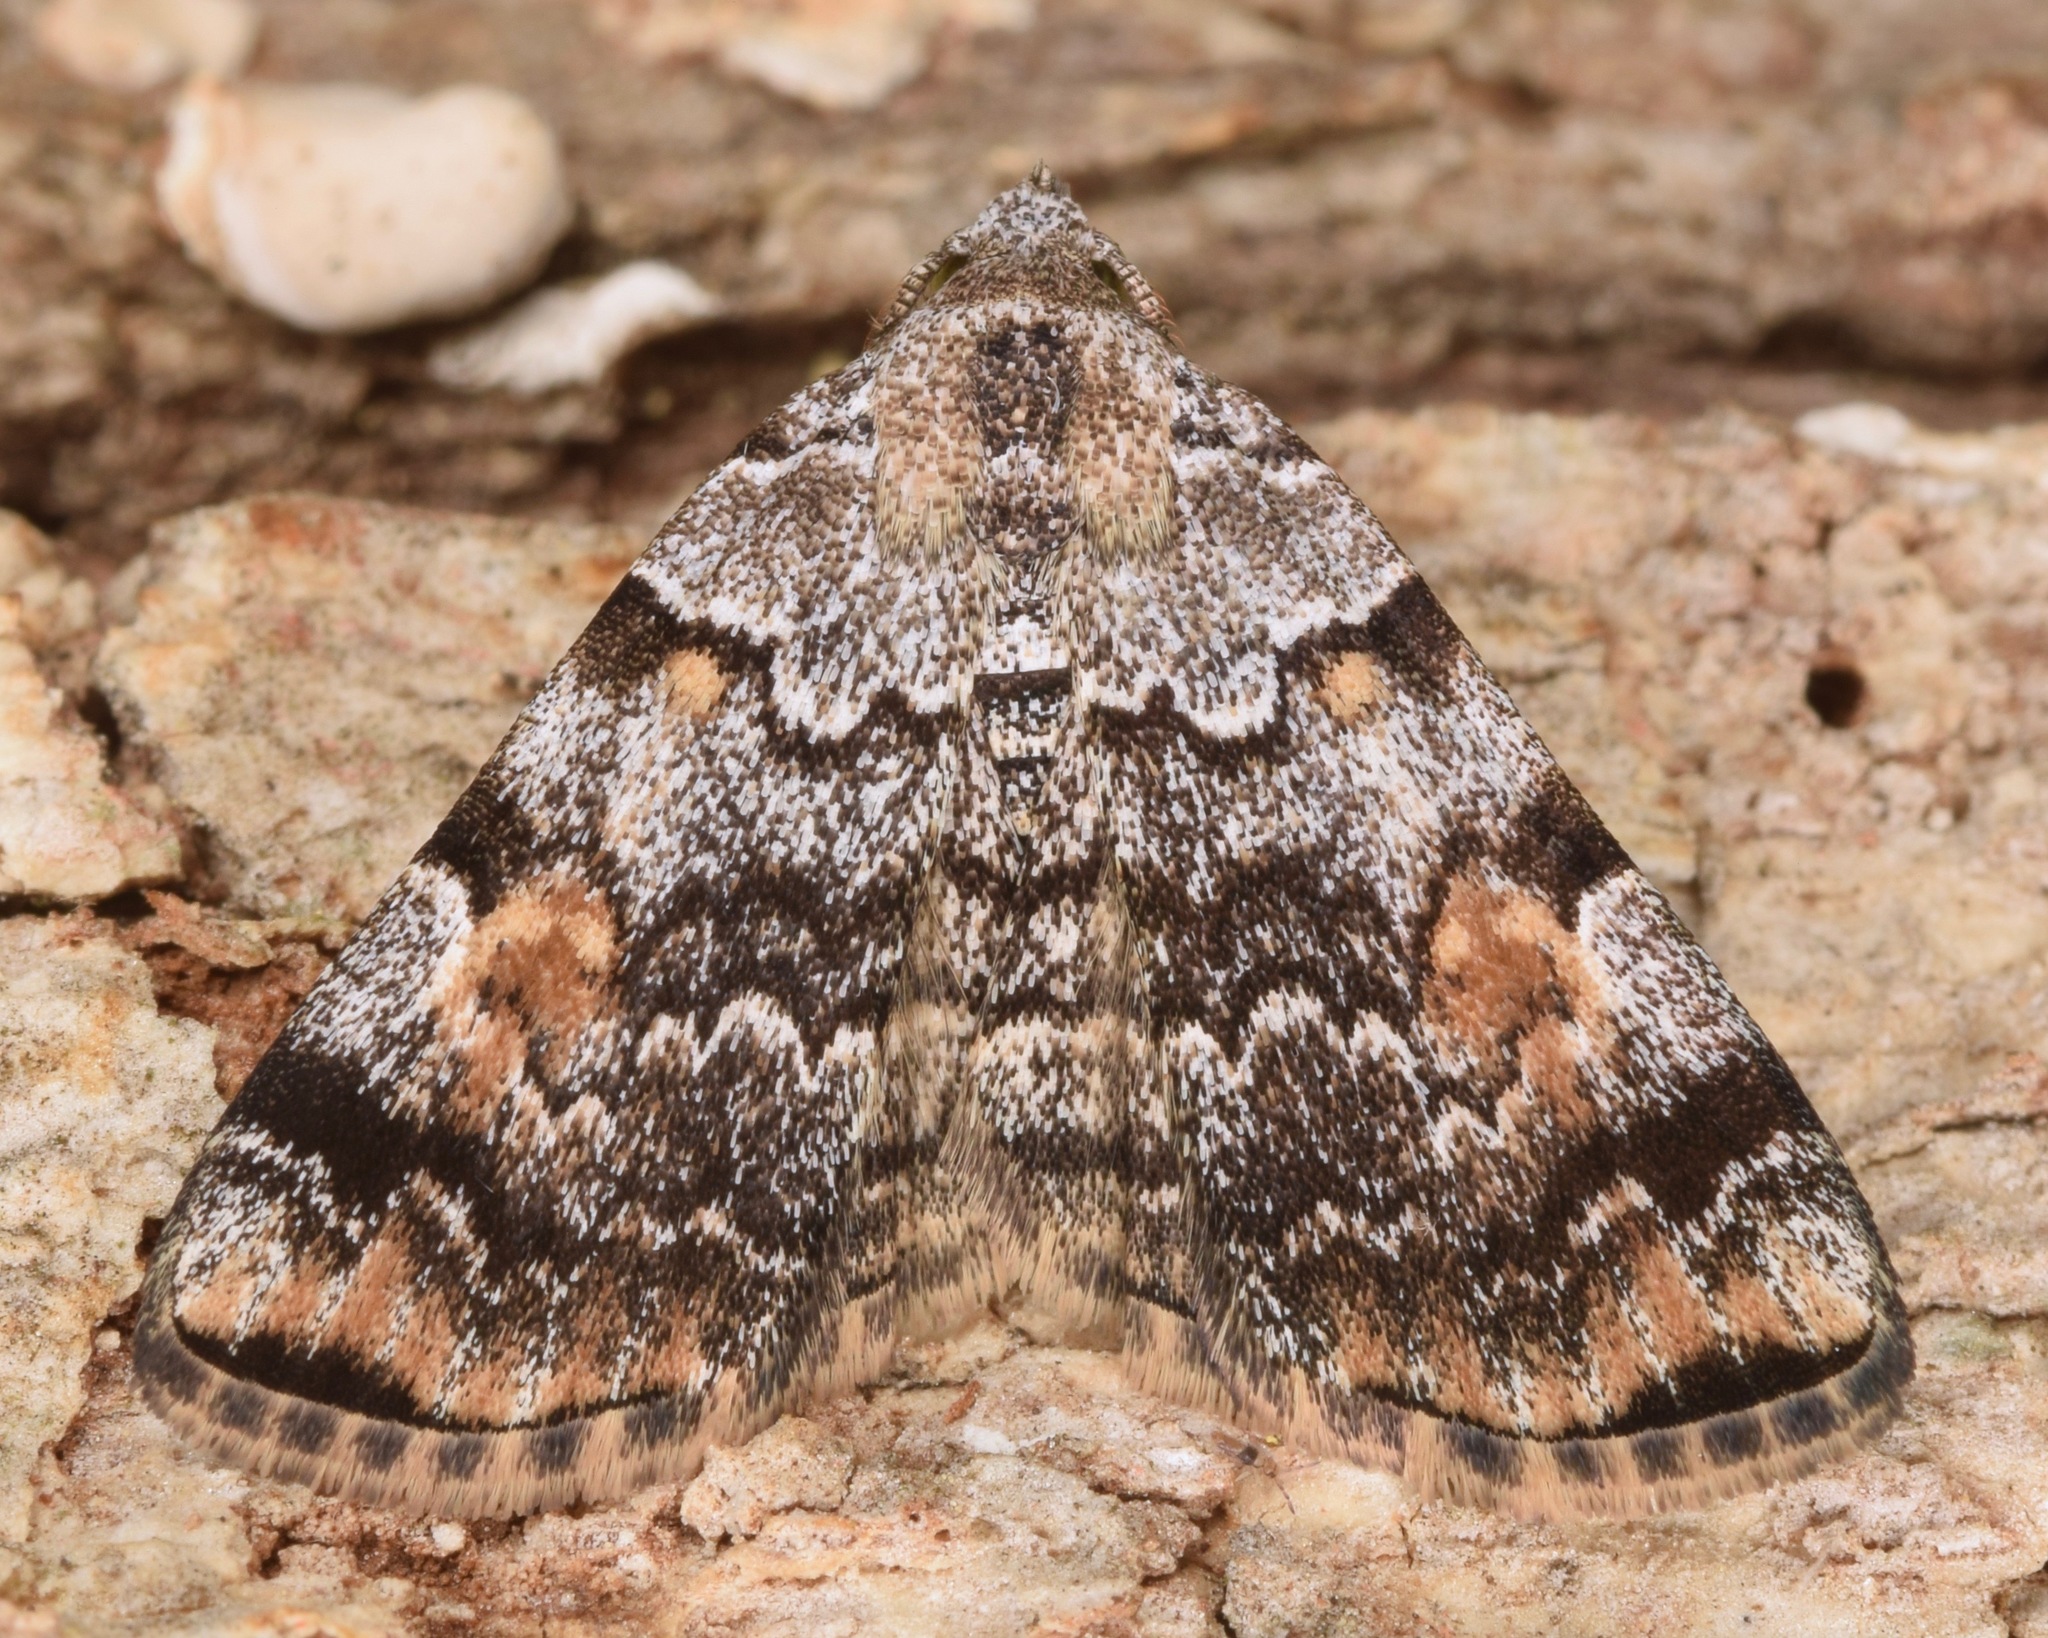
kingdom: Animalia
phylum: Arthropoda
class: Insecta
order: Lepidoptera
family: Erebidae
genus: Idia
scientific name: Idia americalis
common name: American idia moth
